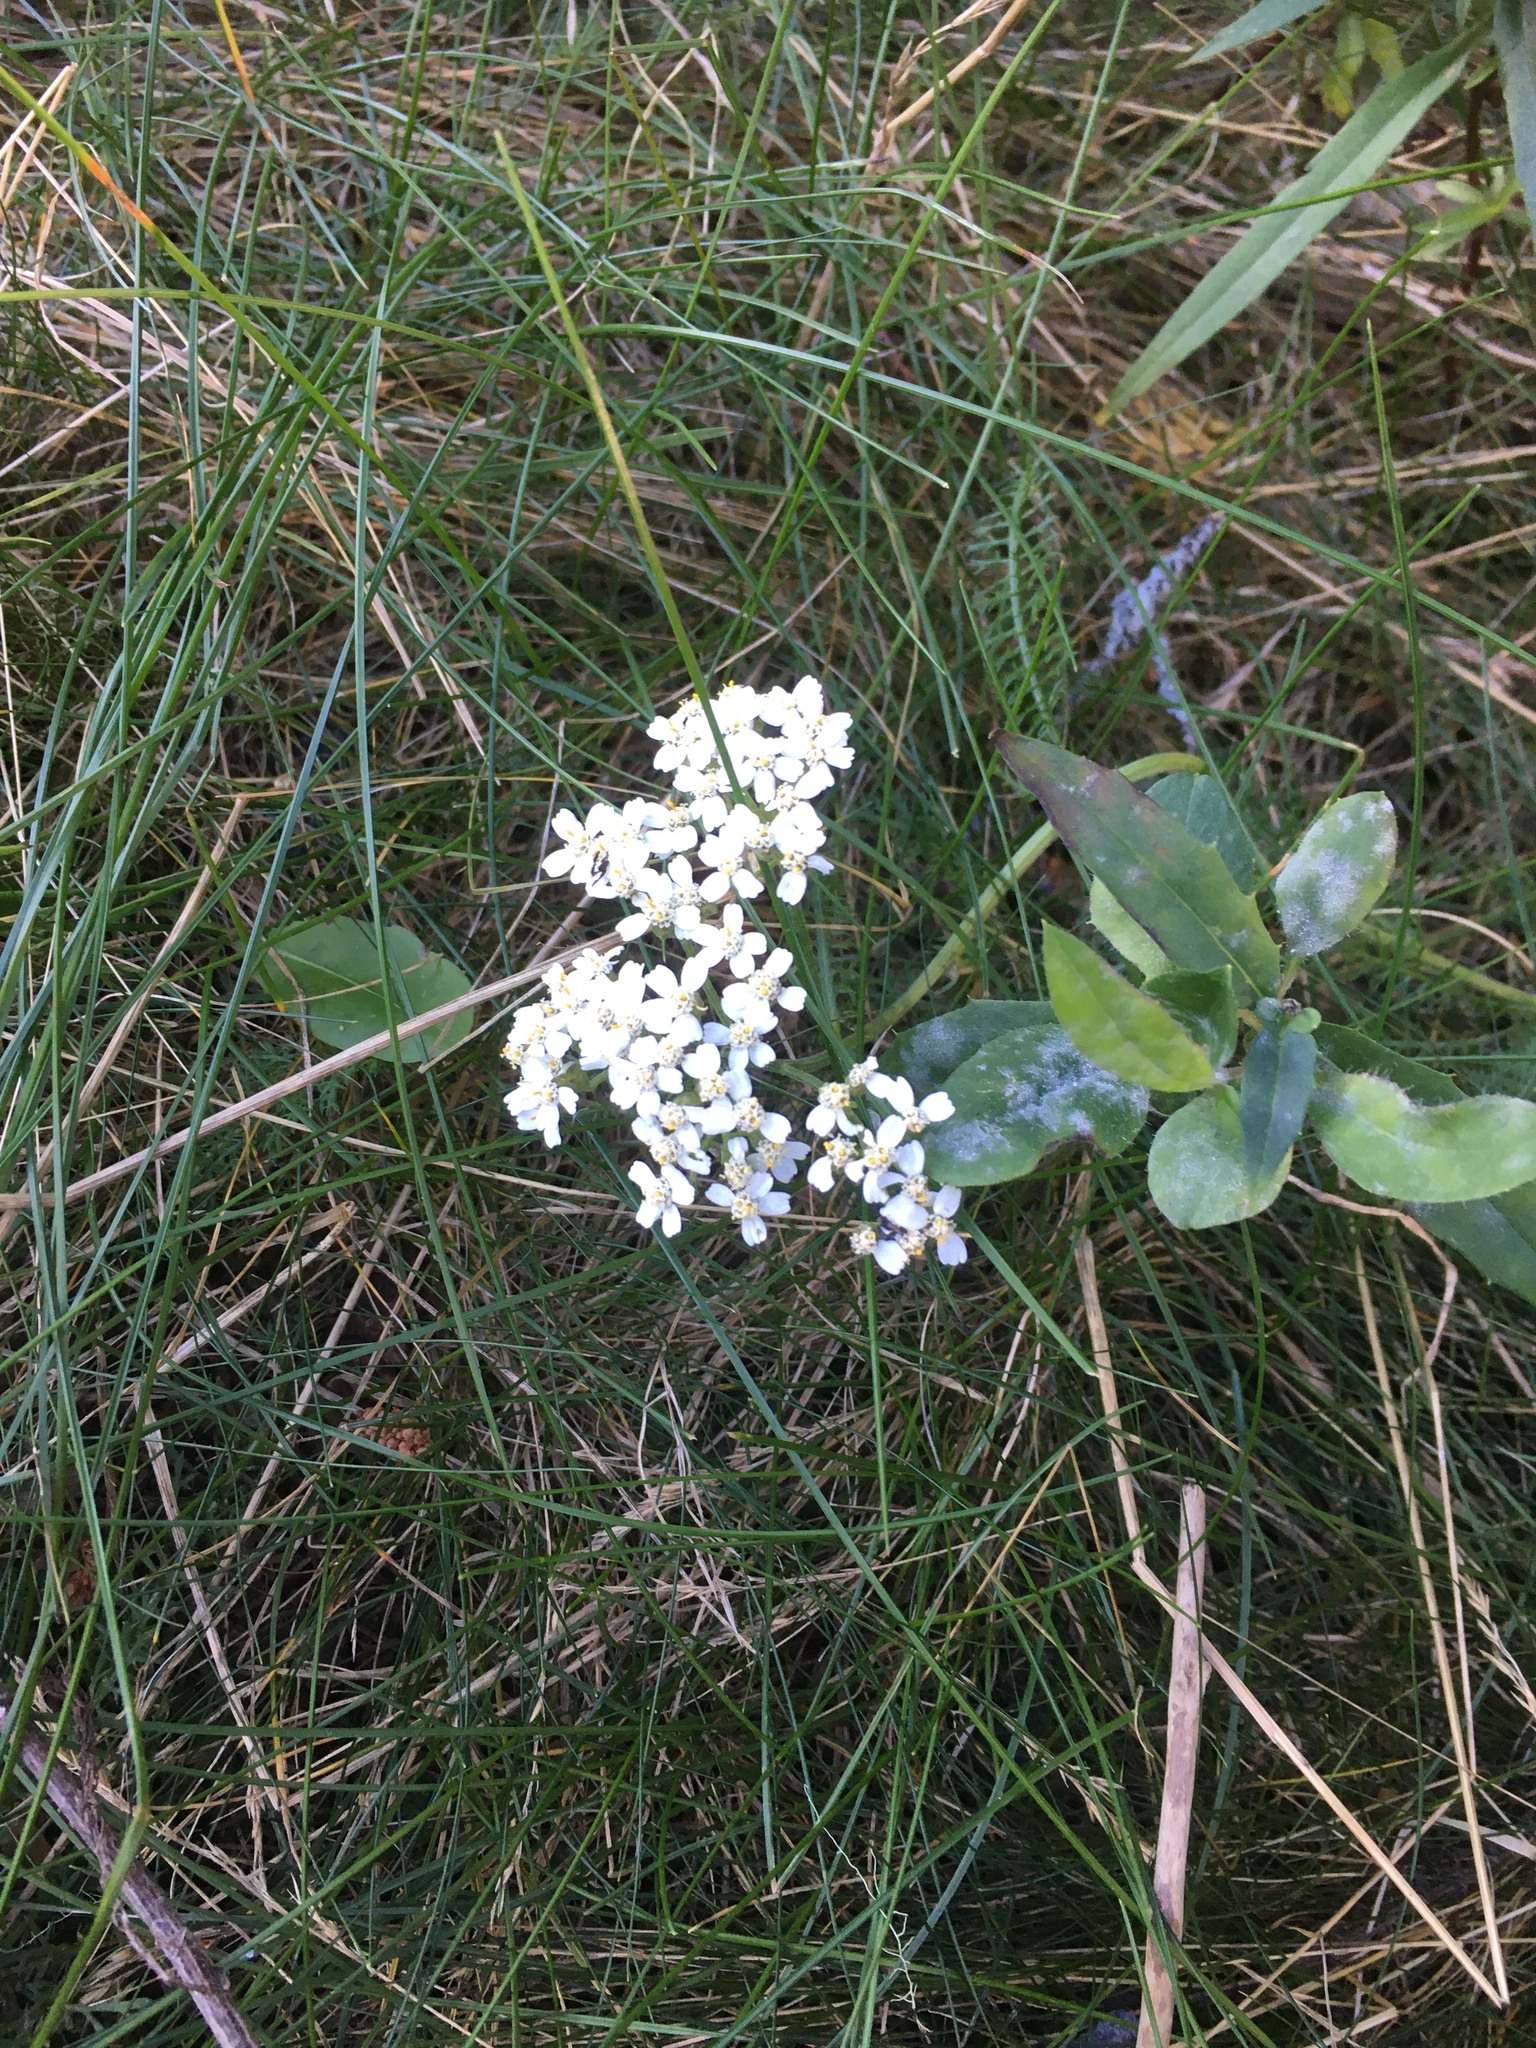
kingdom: Plantae
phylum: Tracheophyta
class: Magnoliopsida
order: Asterales
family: Asteraceae
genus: Achillea
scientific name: Achillea millefolium
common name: Yarrow
